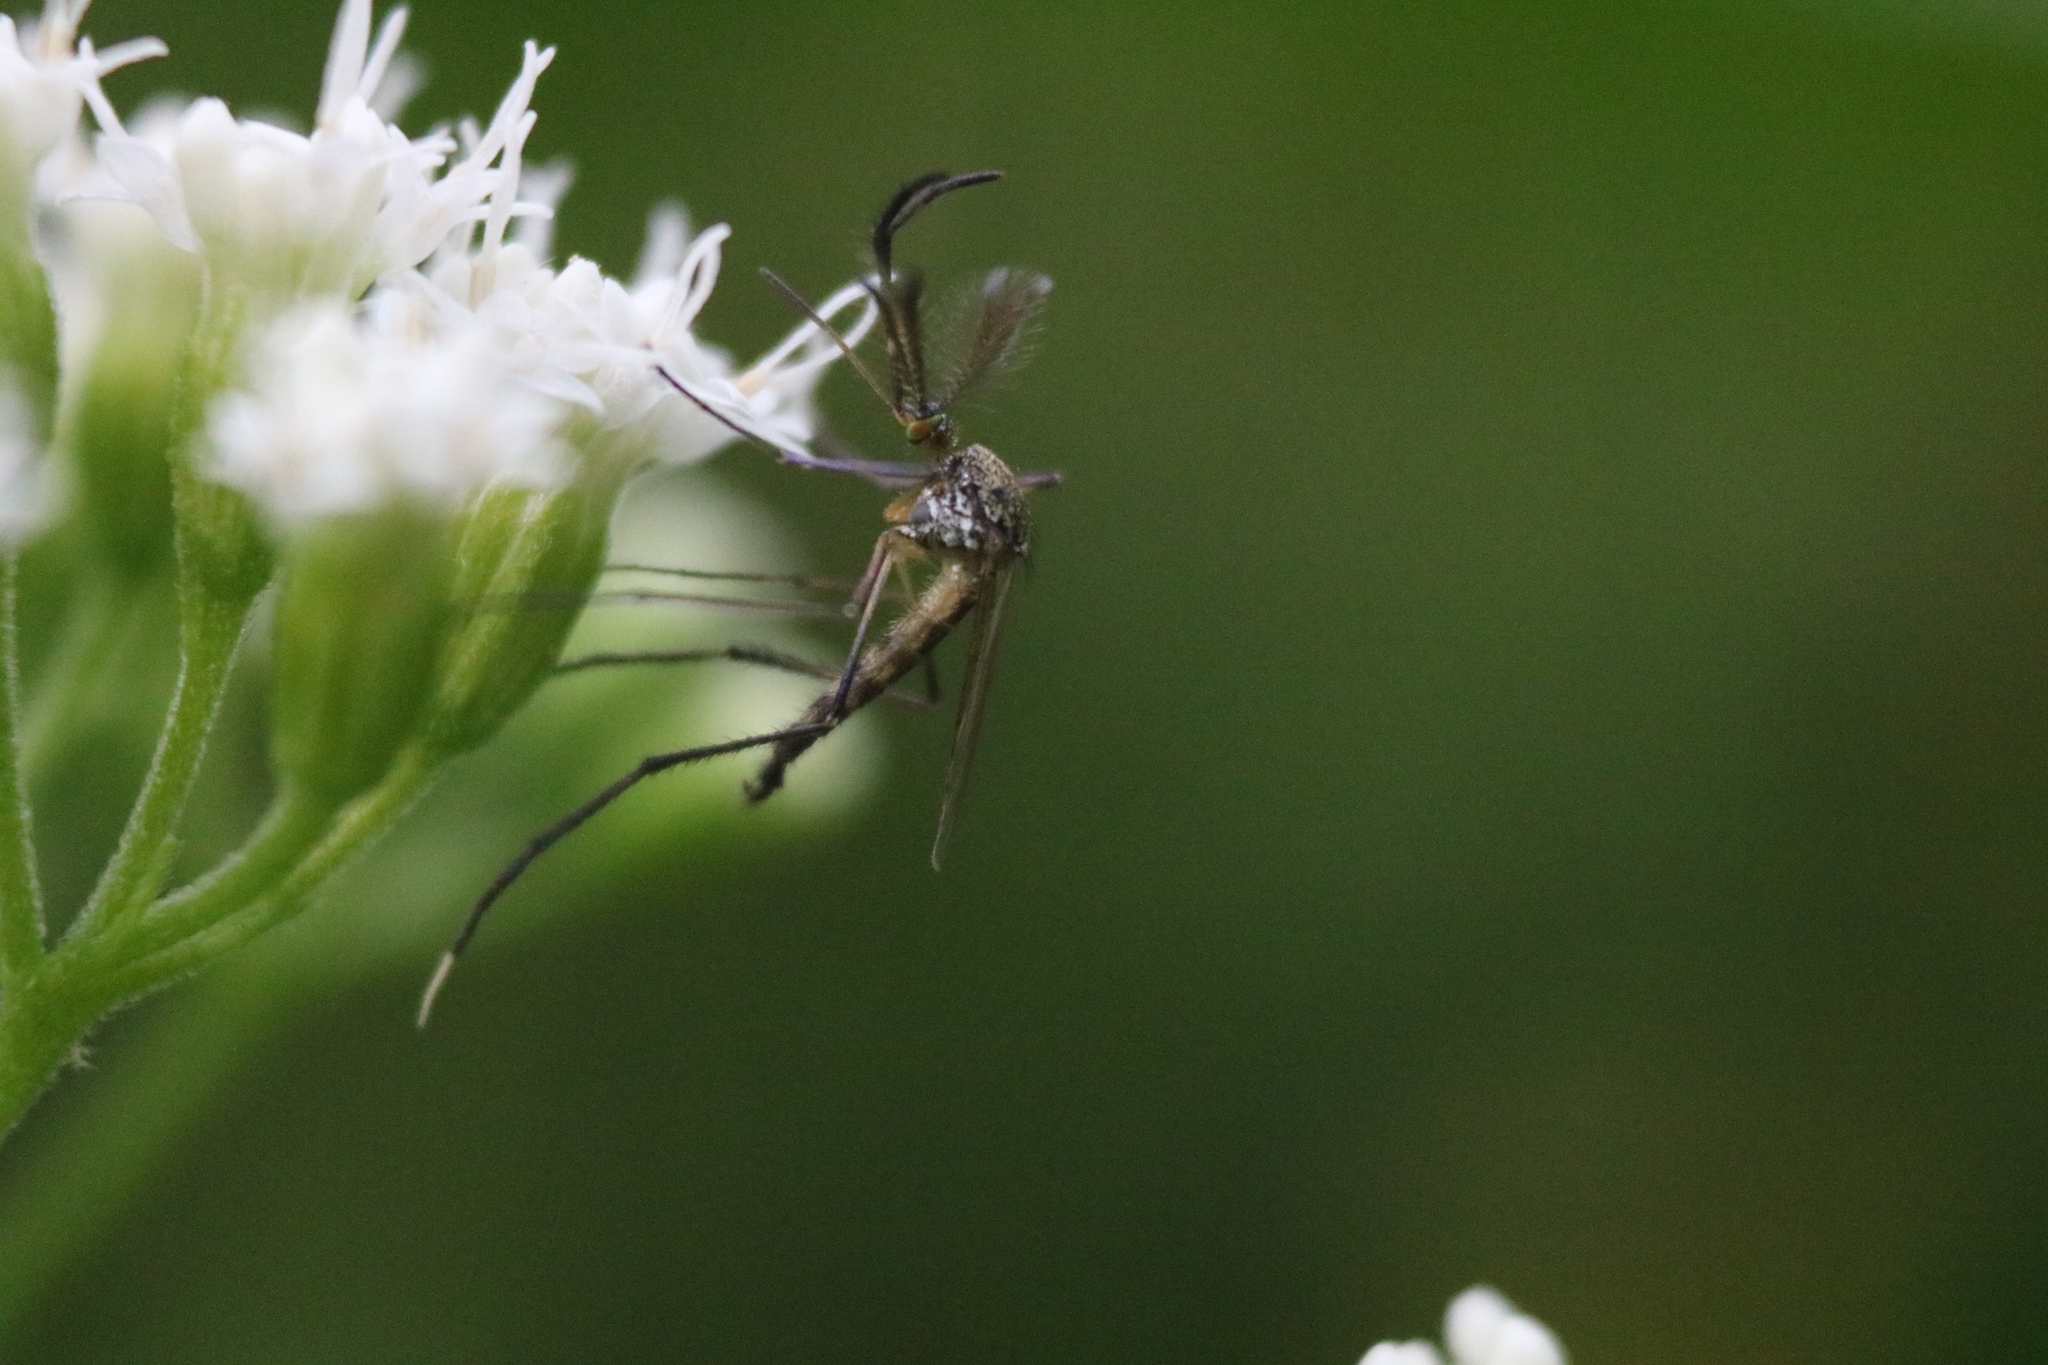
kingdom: Animalia
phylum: Arthropoda
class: Insecta
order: Diptera
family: Culicidae
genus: Psorophora
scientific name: Psorophora ferox
